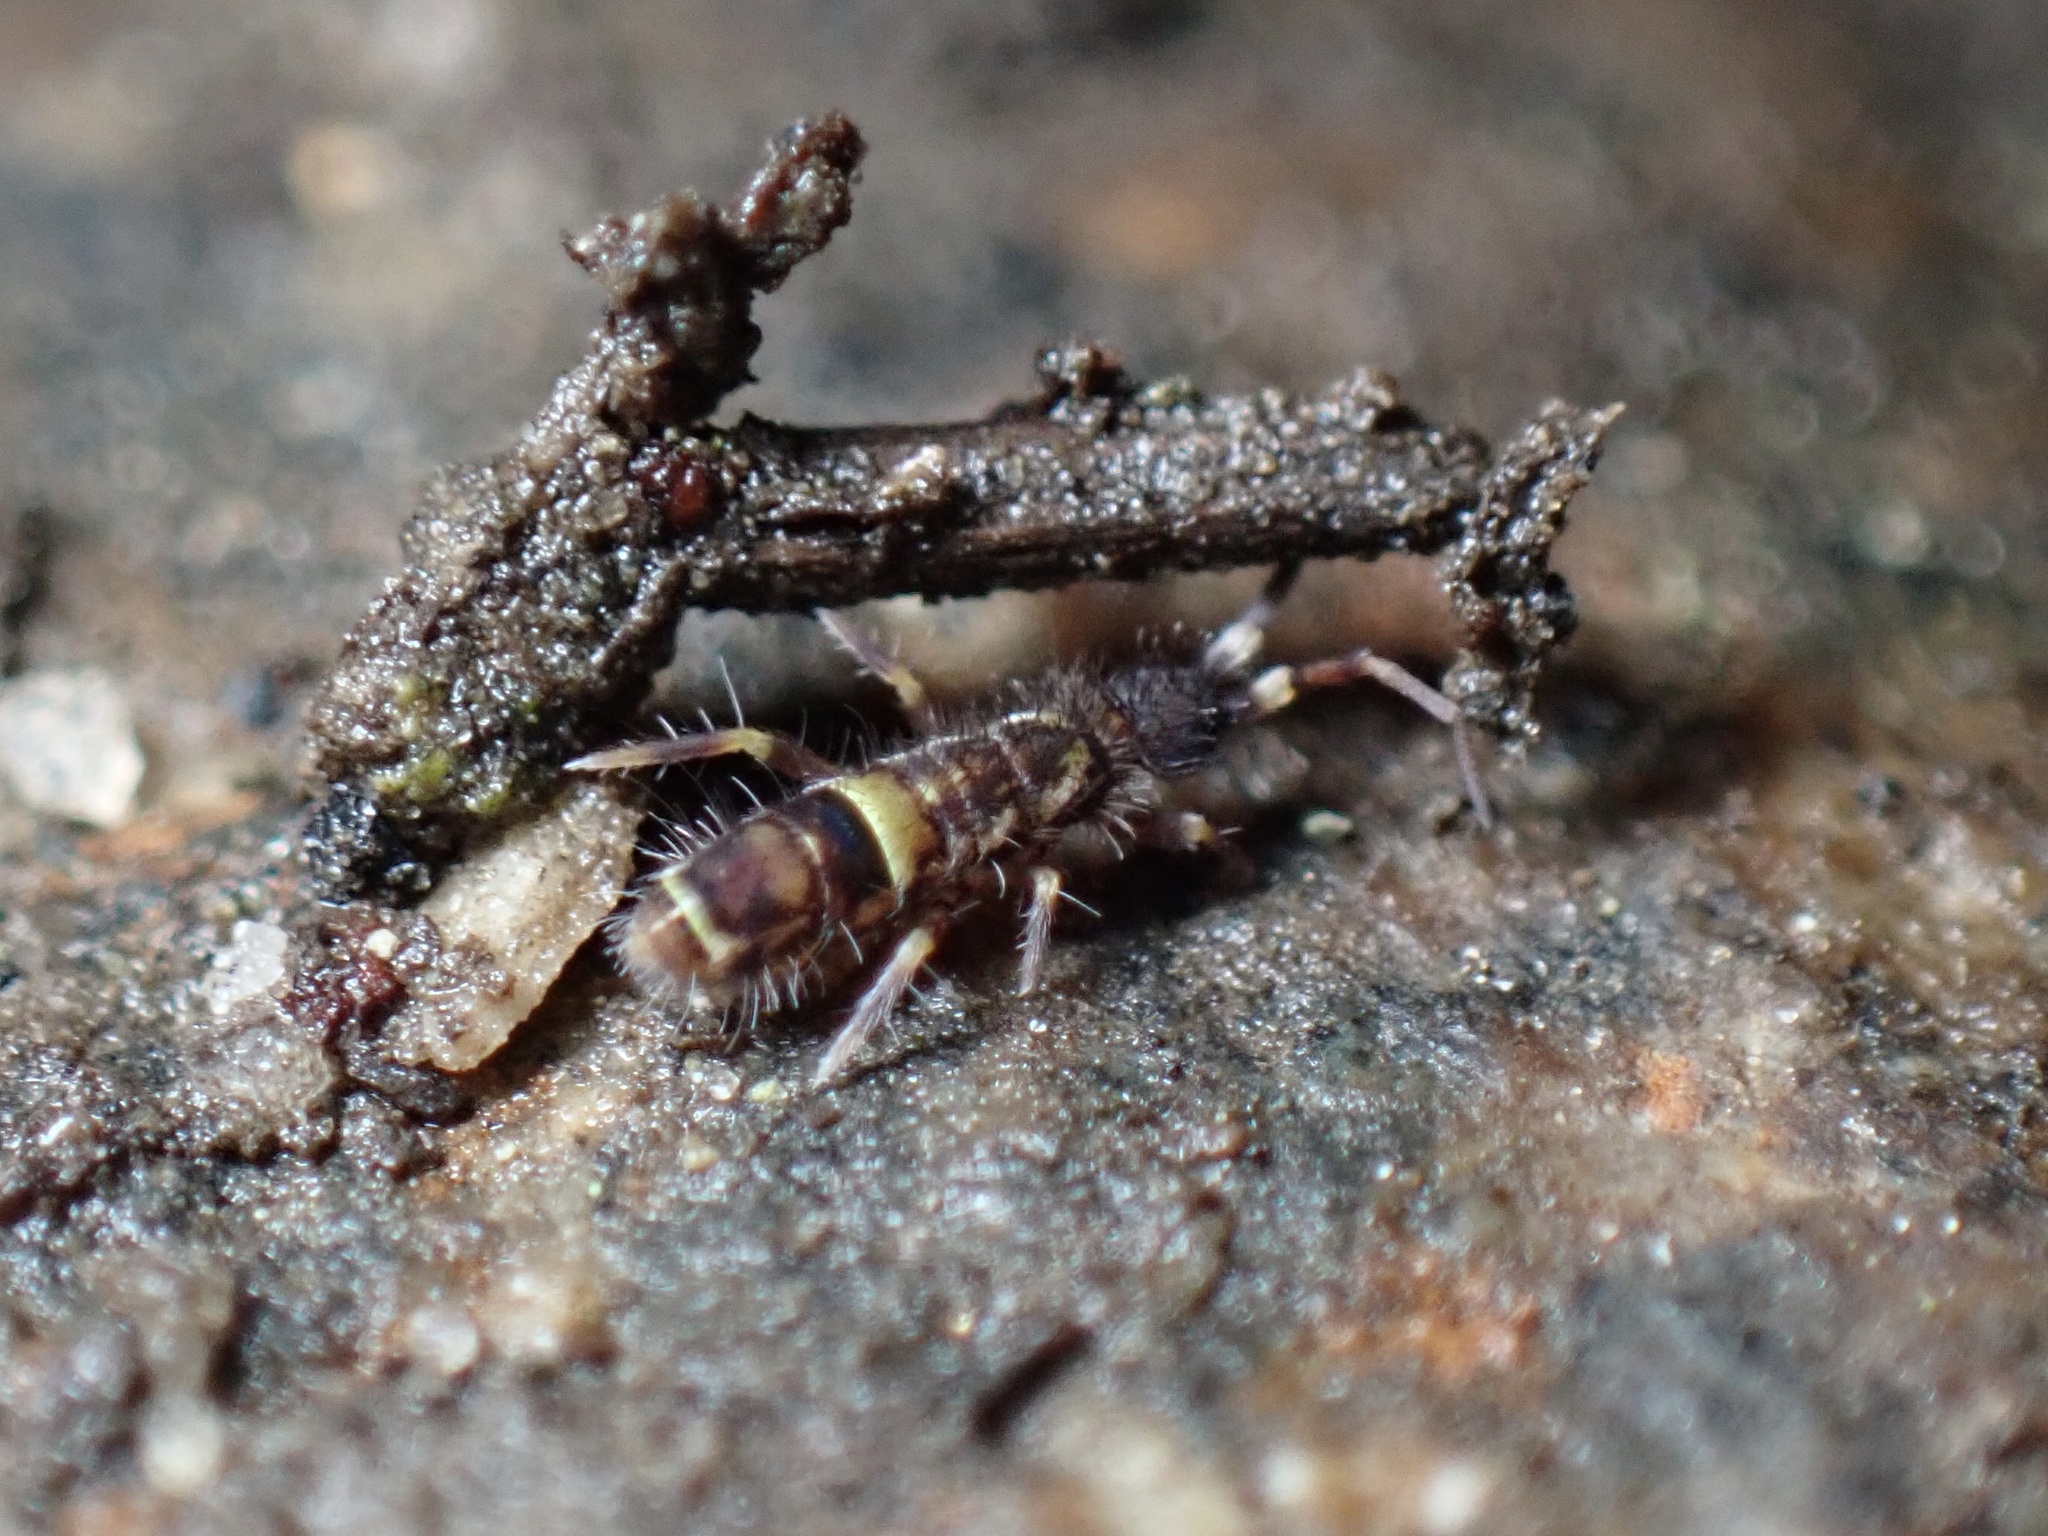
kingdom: Animalia
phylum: Arthropoda
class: Collembola
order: Entomobryomorpha
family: Orchesellidae
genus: Orchesella
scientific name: Orchesella cincta
